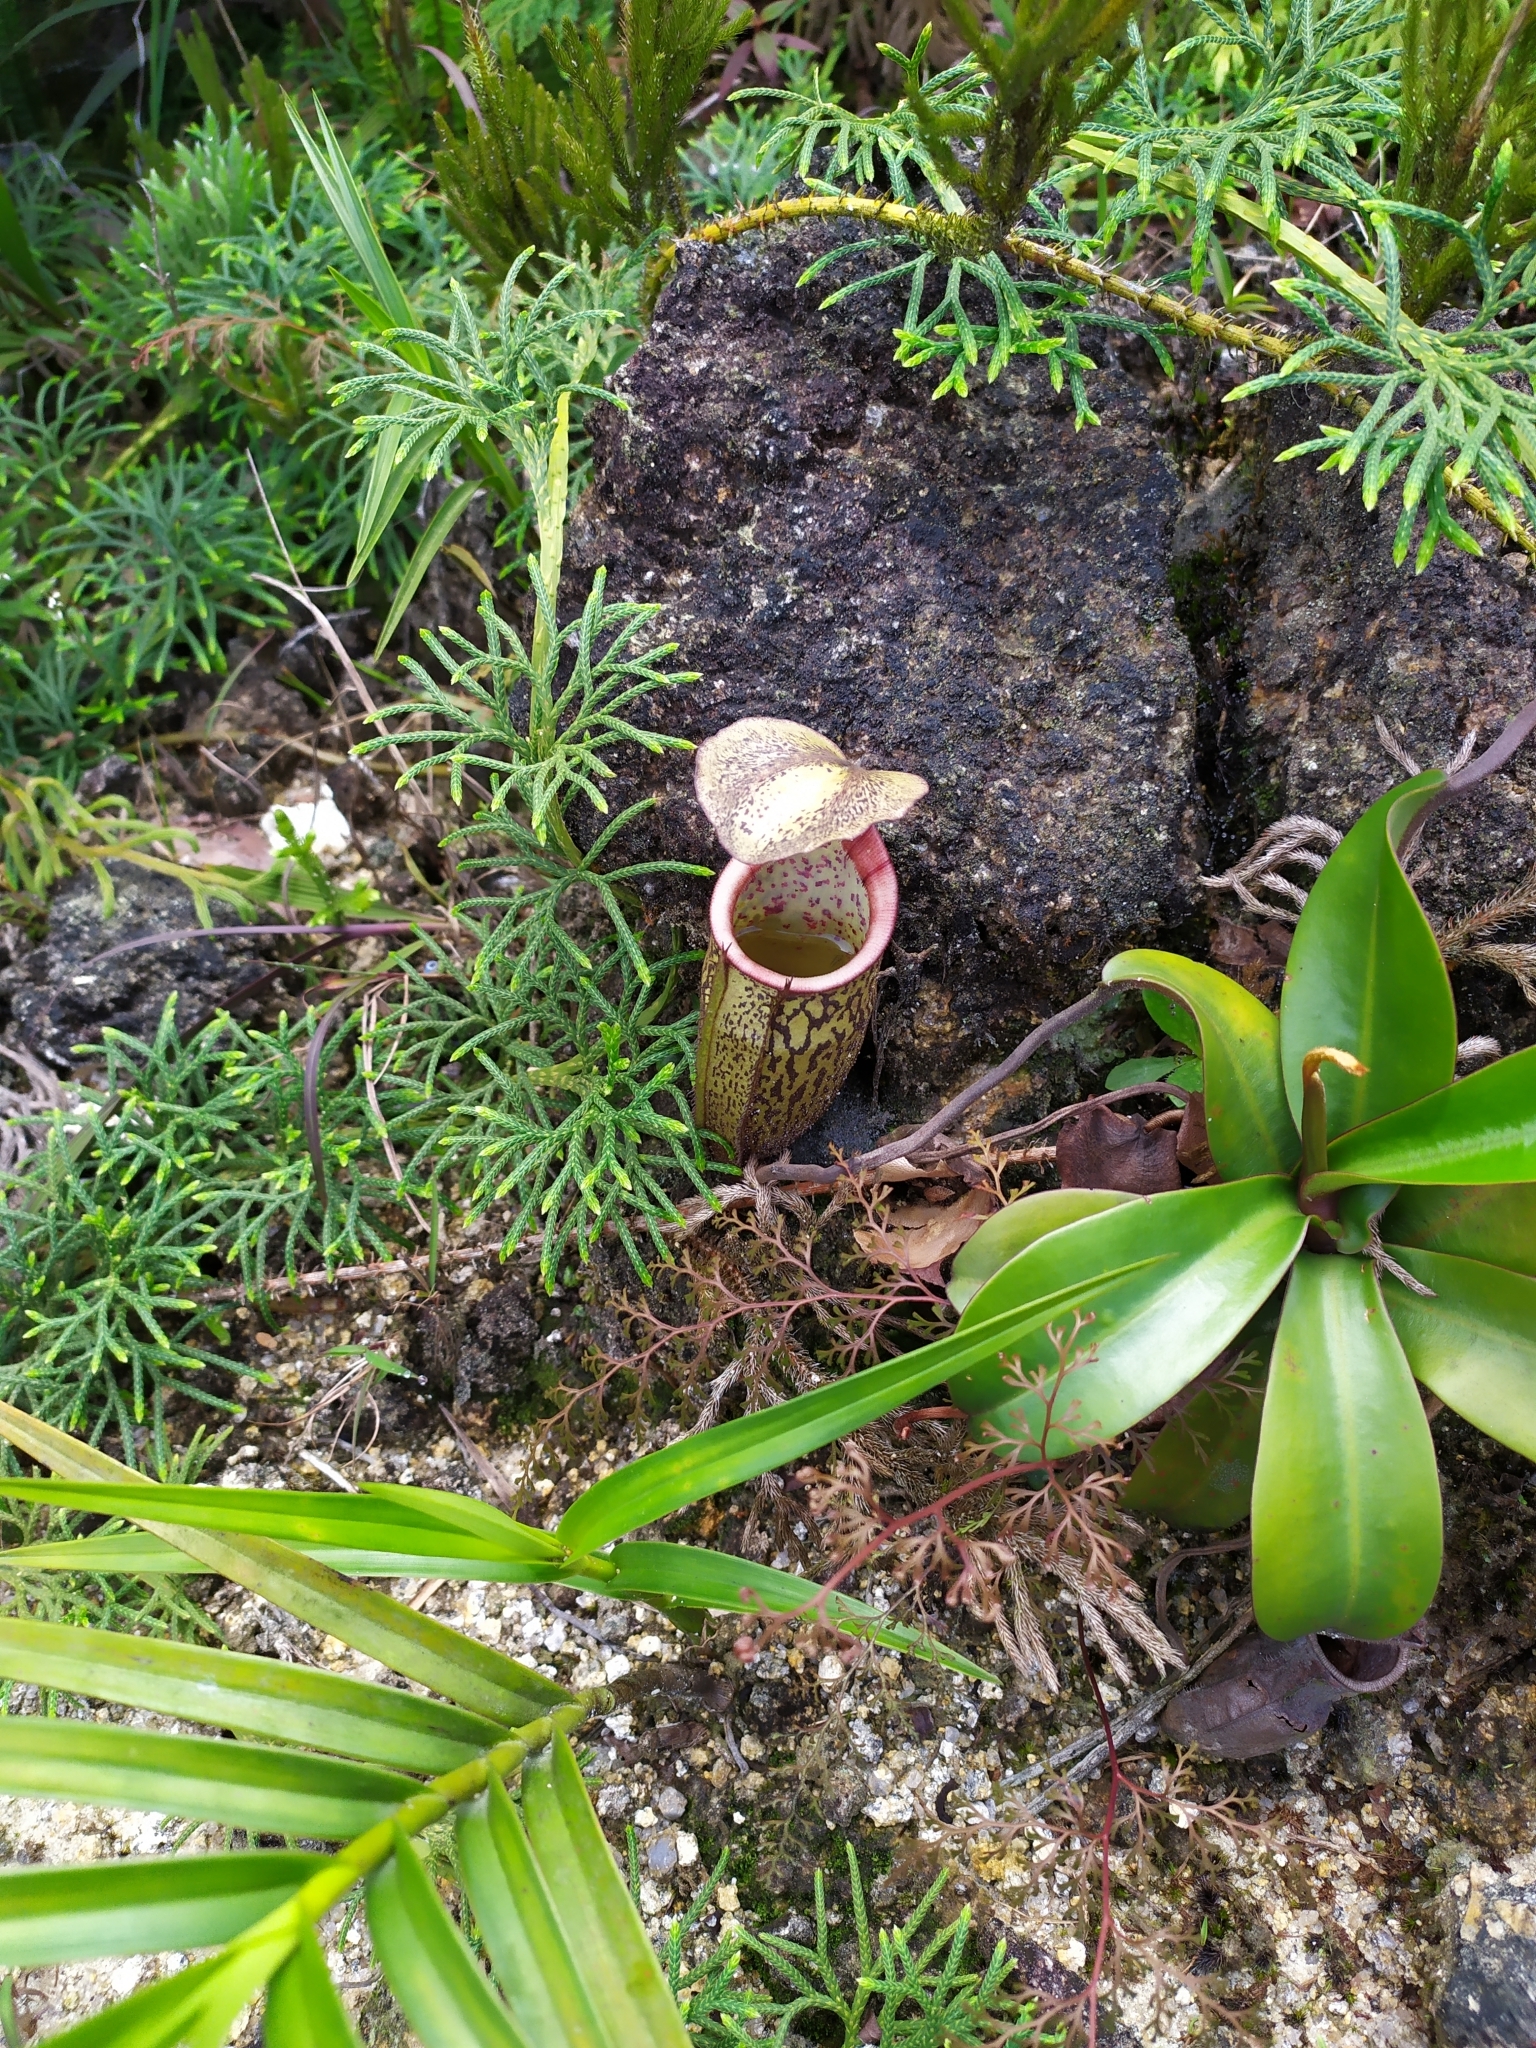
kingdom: Plantae
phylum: Tracheophyta
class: Magnoliopsida
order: Caryophyllales
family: Nepenthaceae
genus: Nepenthes
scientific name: Nepenthes macfarlanei
